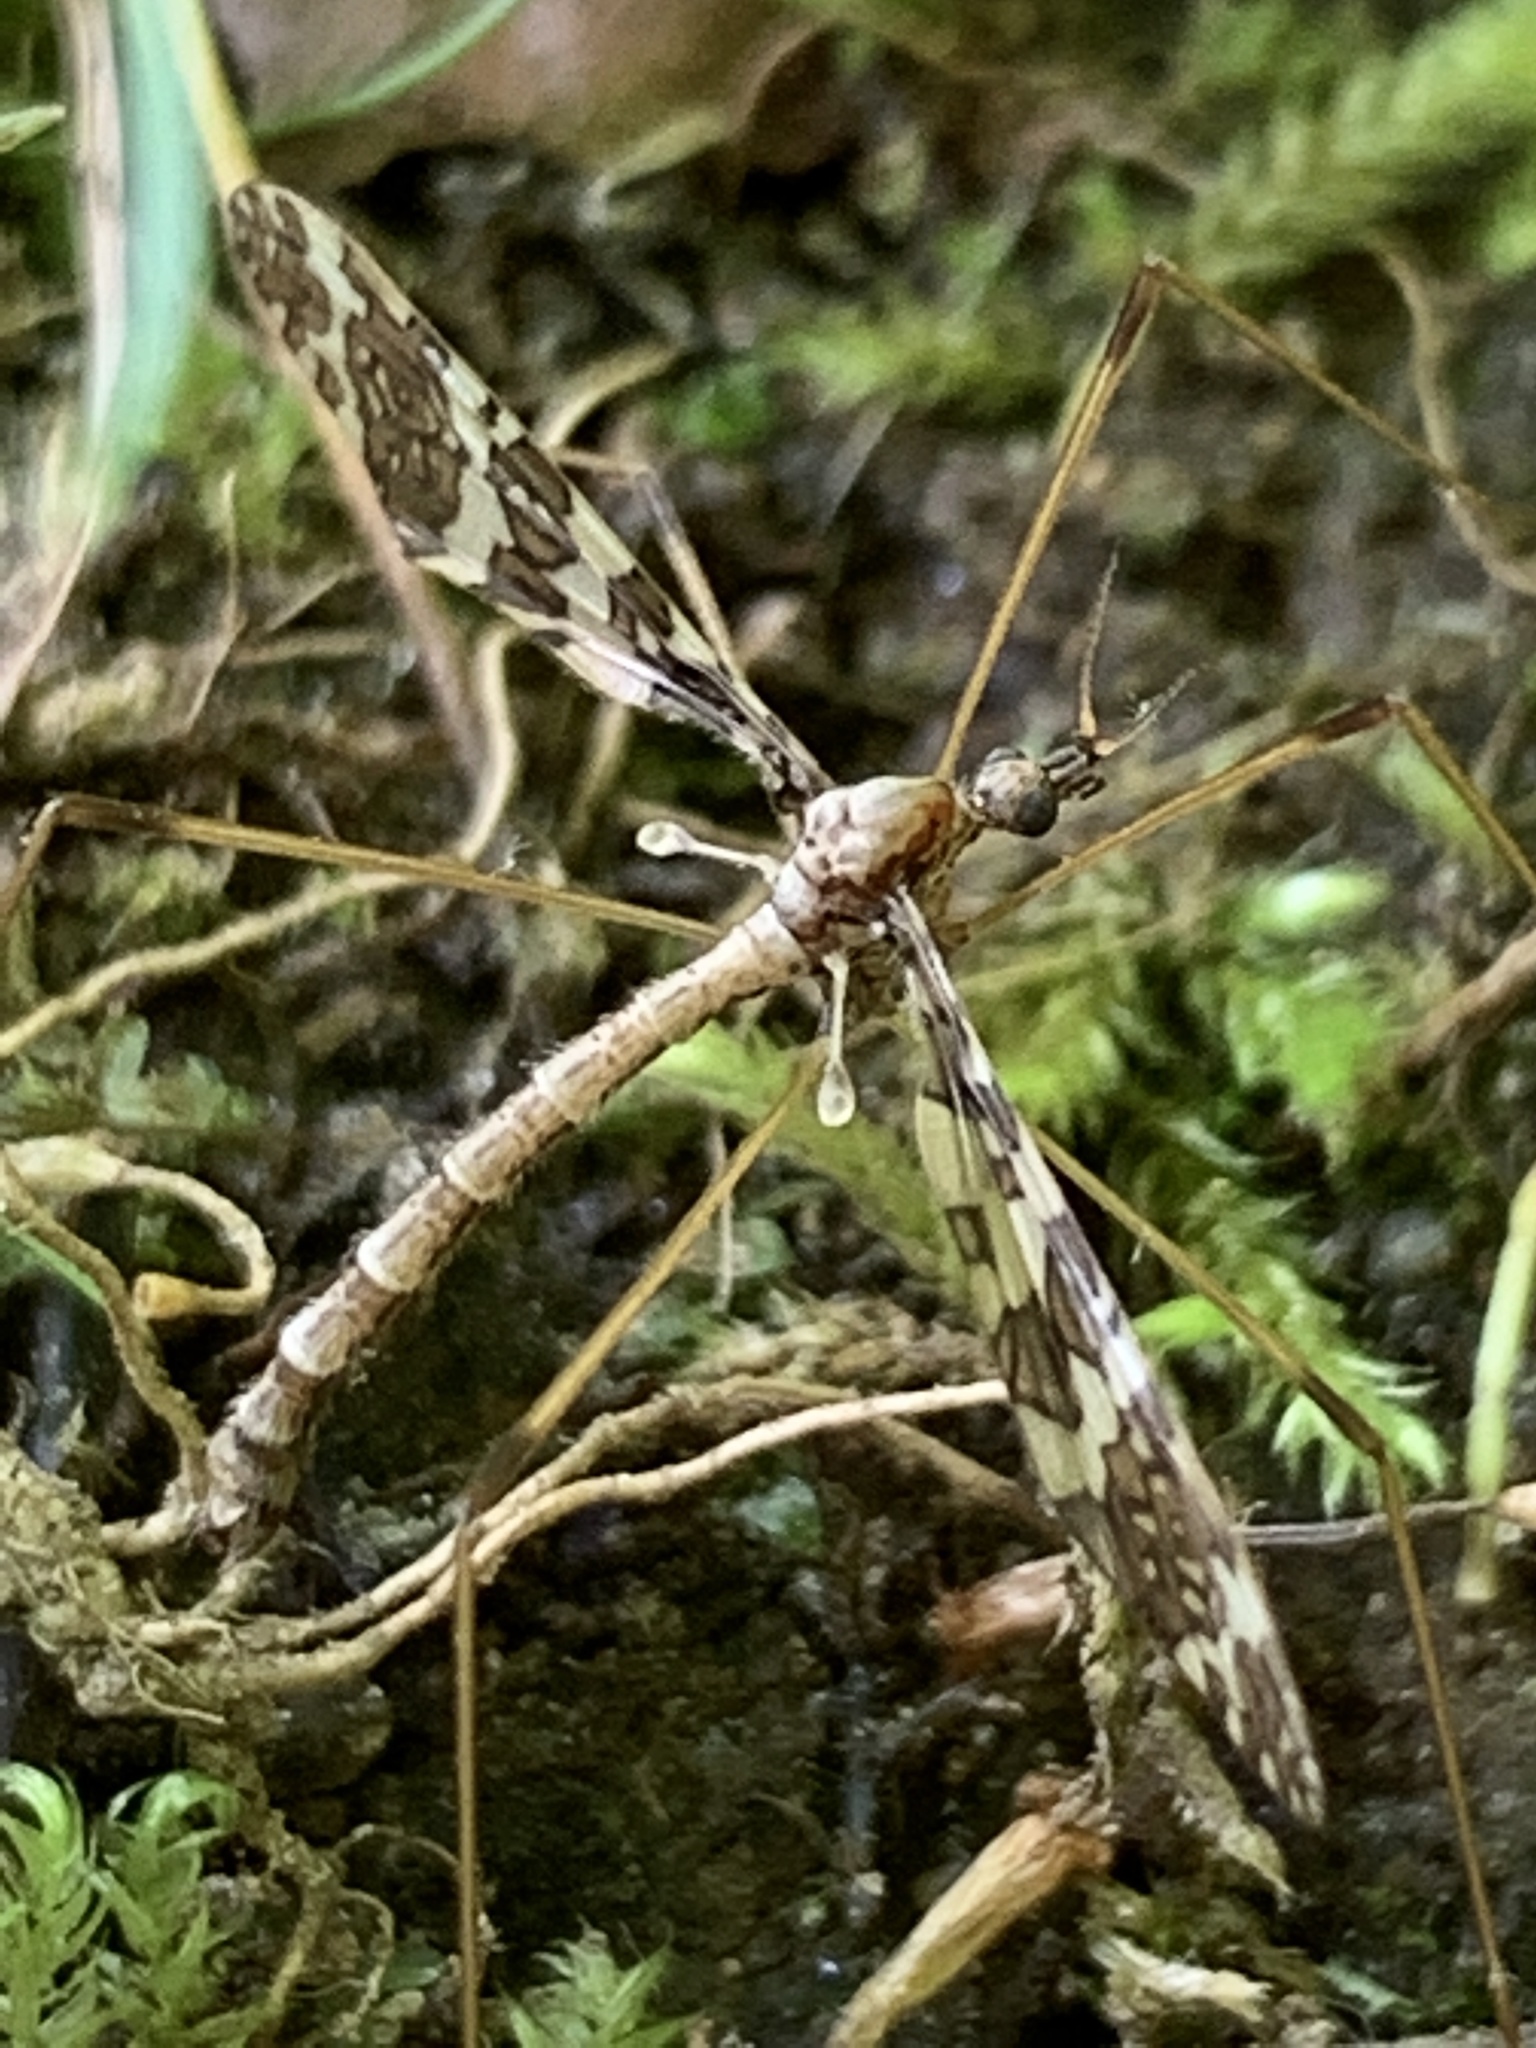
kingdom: Animalia
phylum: Arthropoda
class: Insecta
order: Diptera
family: Limoniidae
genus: Epiphragma
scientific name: Epiphragma fasciapenne
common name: Band-winged crane fly
